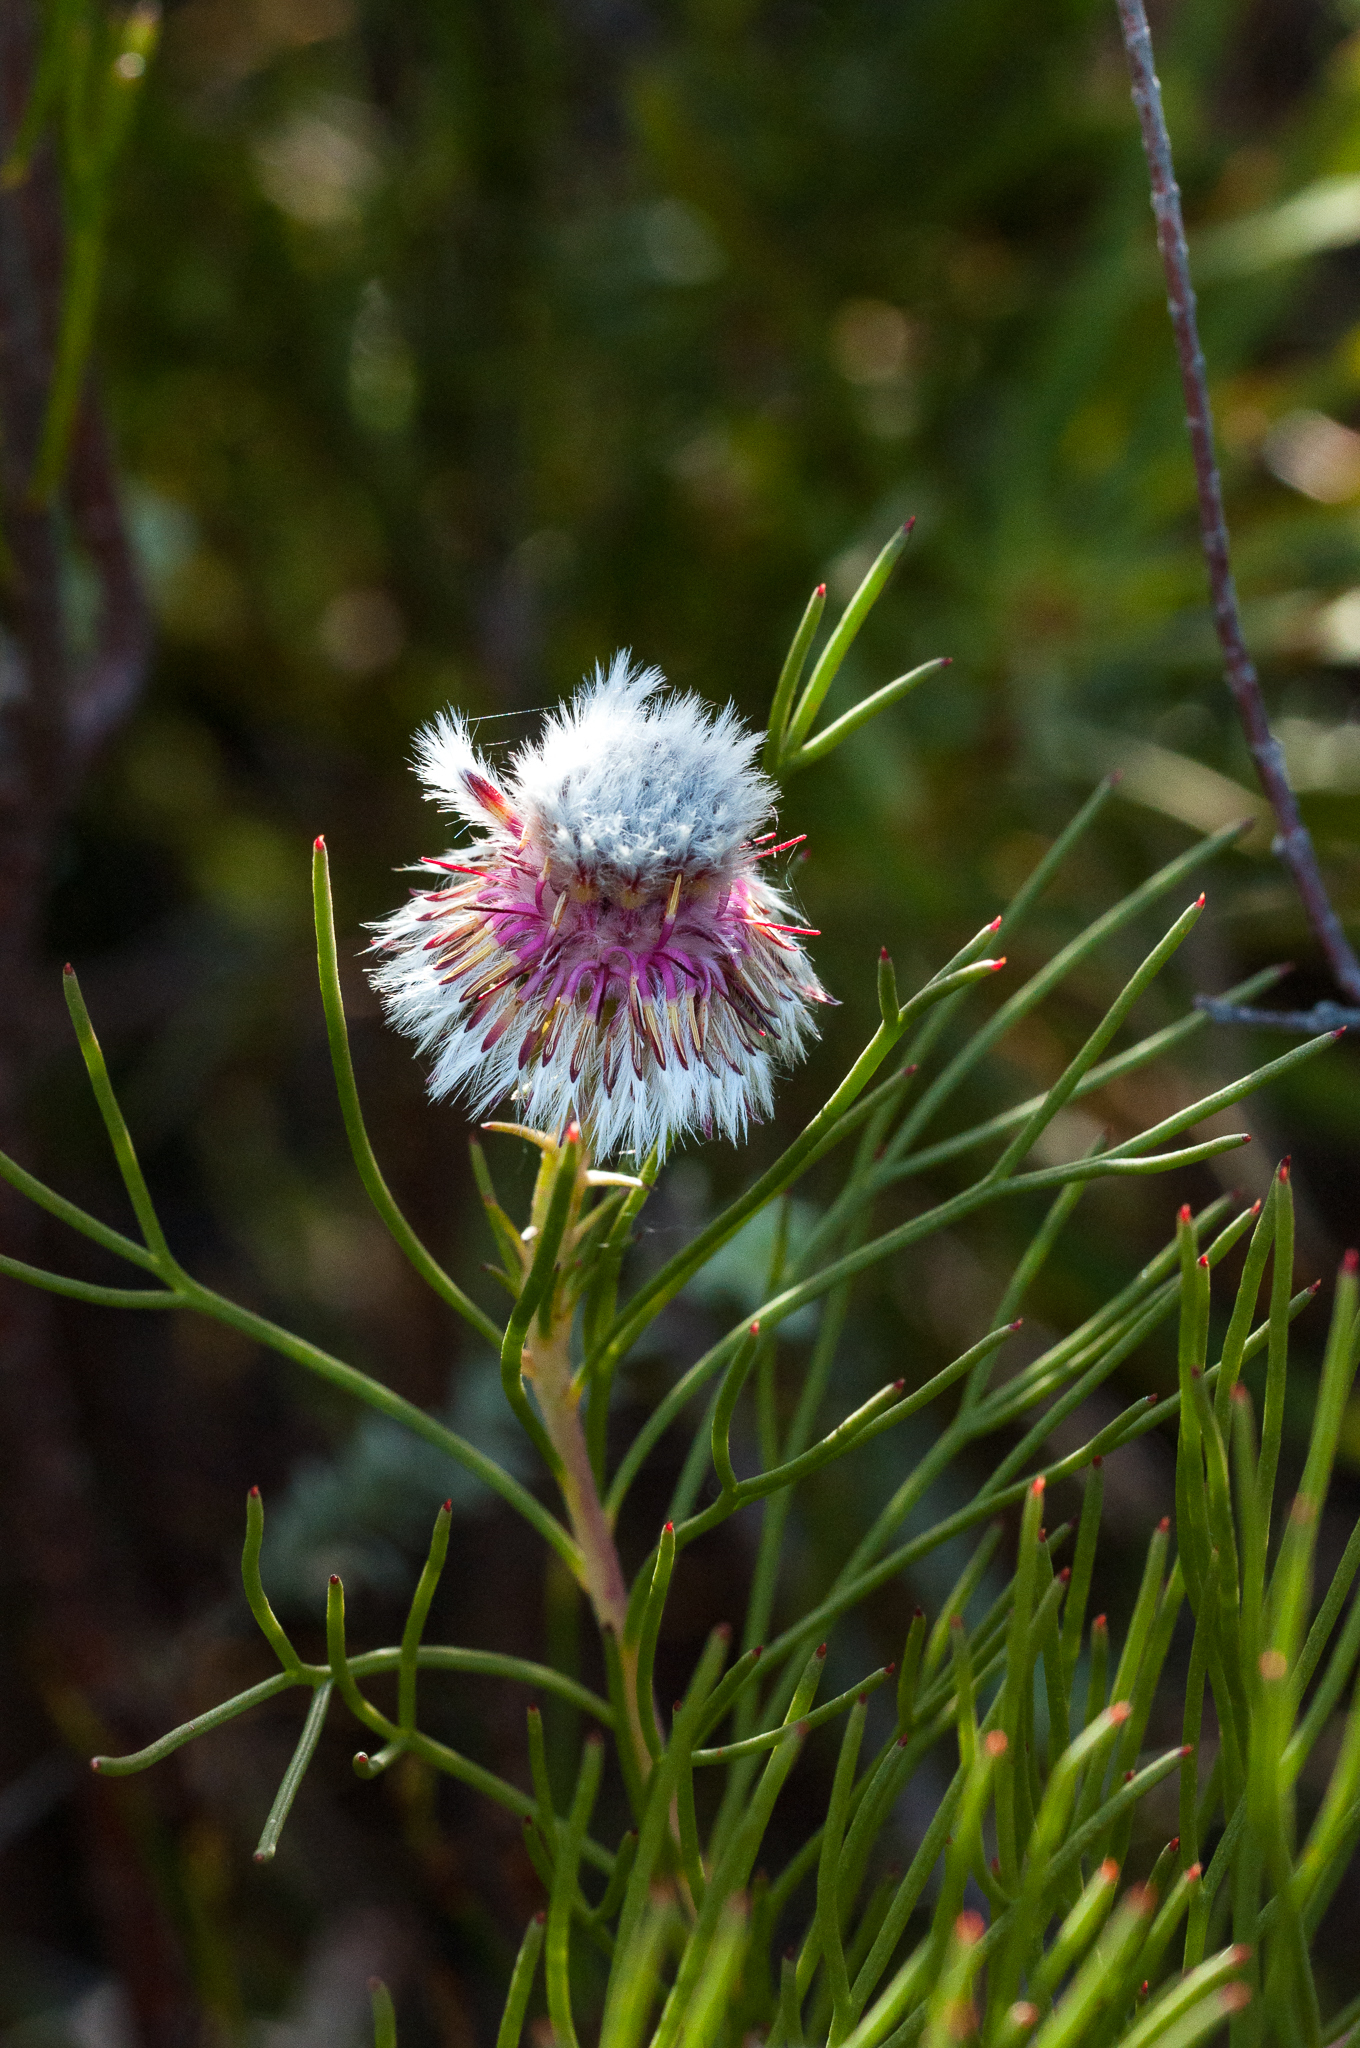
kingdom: Plantae
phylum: Tracheophyta
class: Magnoliopsida
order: Proteales
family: Proteaceae
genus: Serruria
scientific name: Serruria heterophylla
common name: Spindly spiderhead
